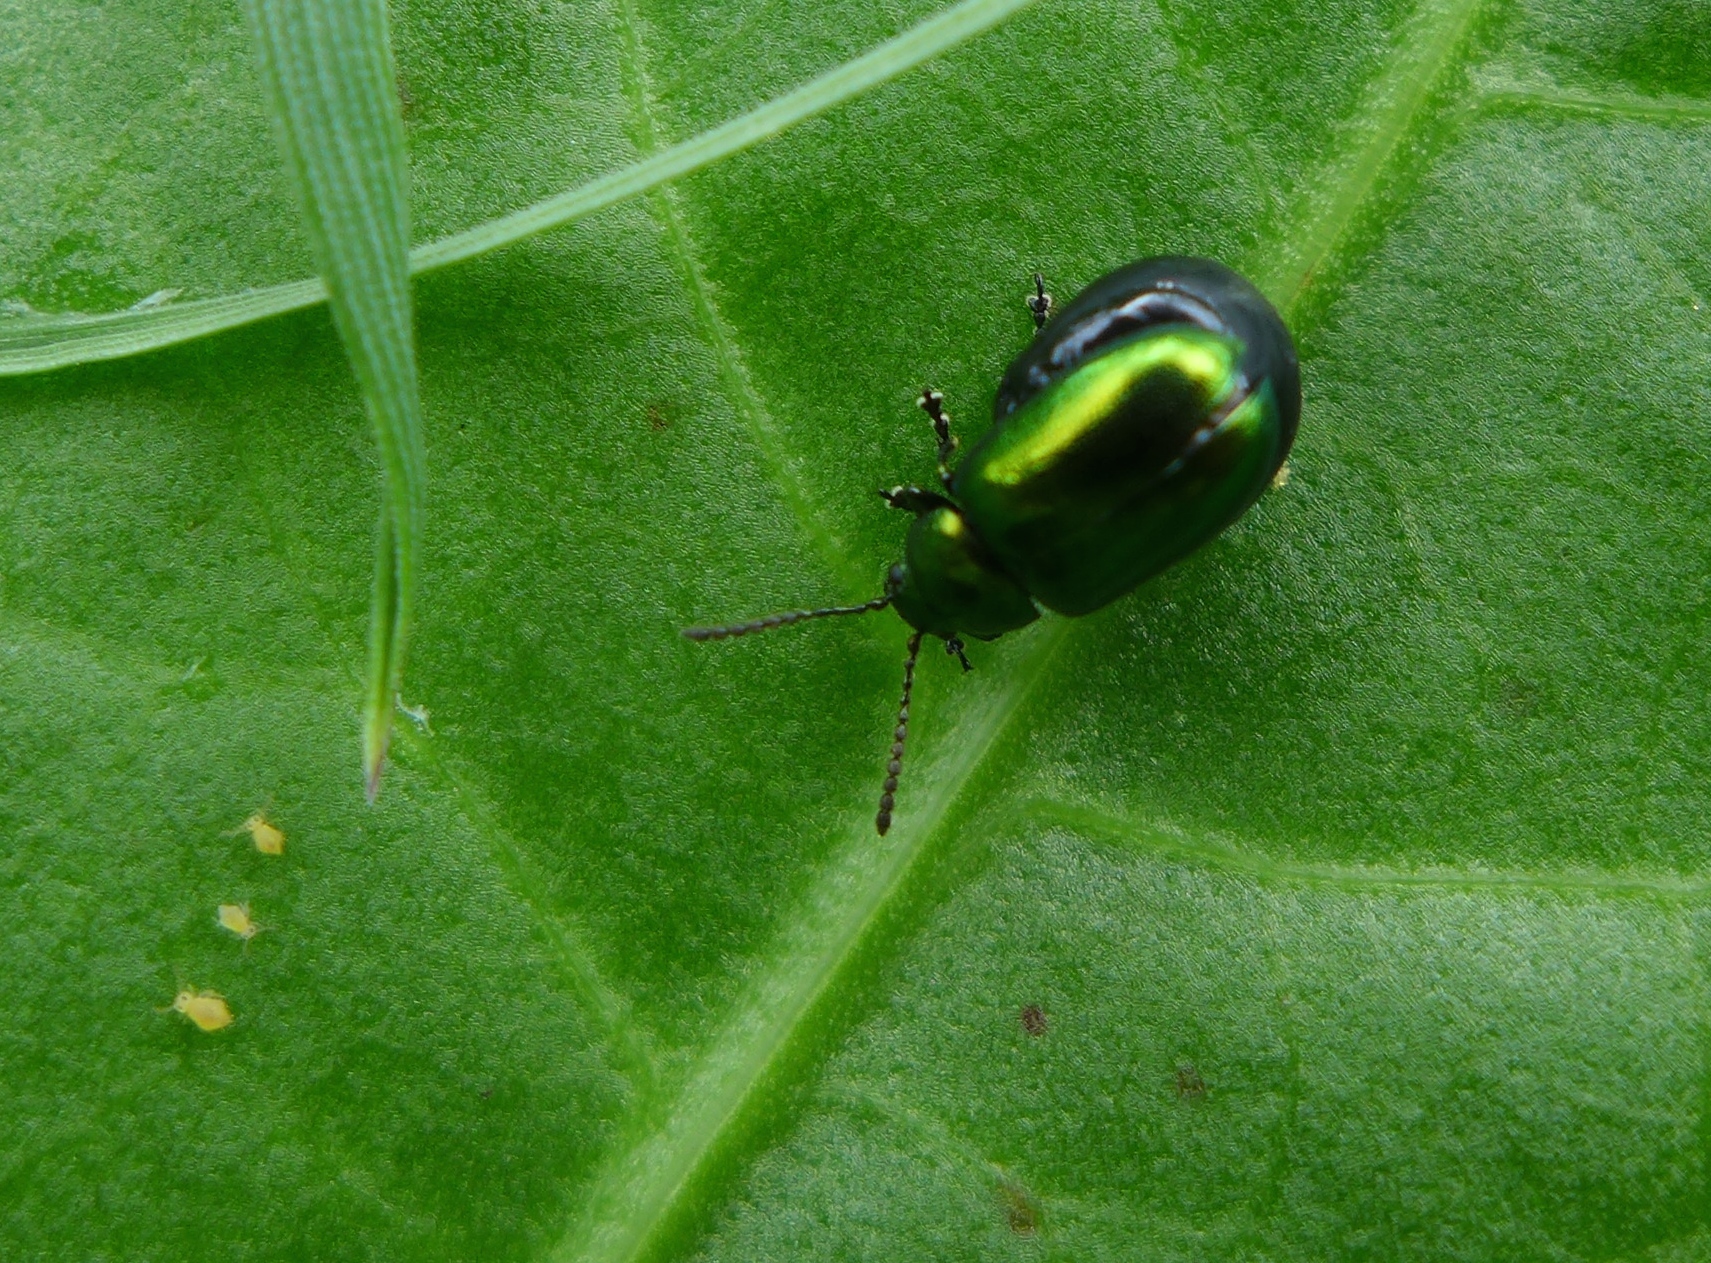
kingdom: Animalia
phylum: Arthropoda
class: Insecta
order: Coleoptera
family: Chrysomelidae
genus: Gastrophysa
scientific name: Gastrophysa cyanea
